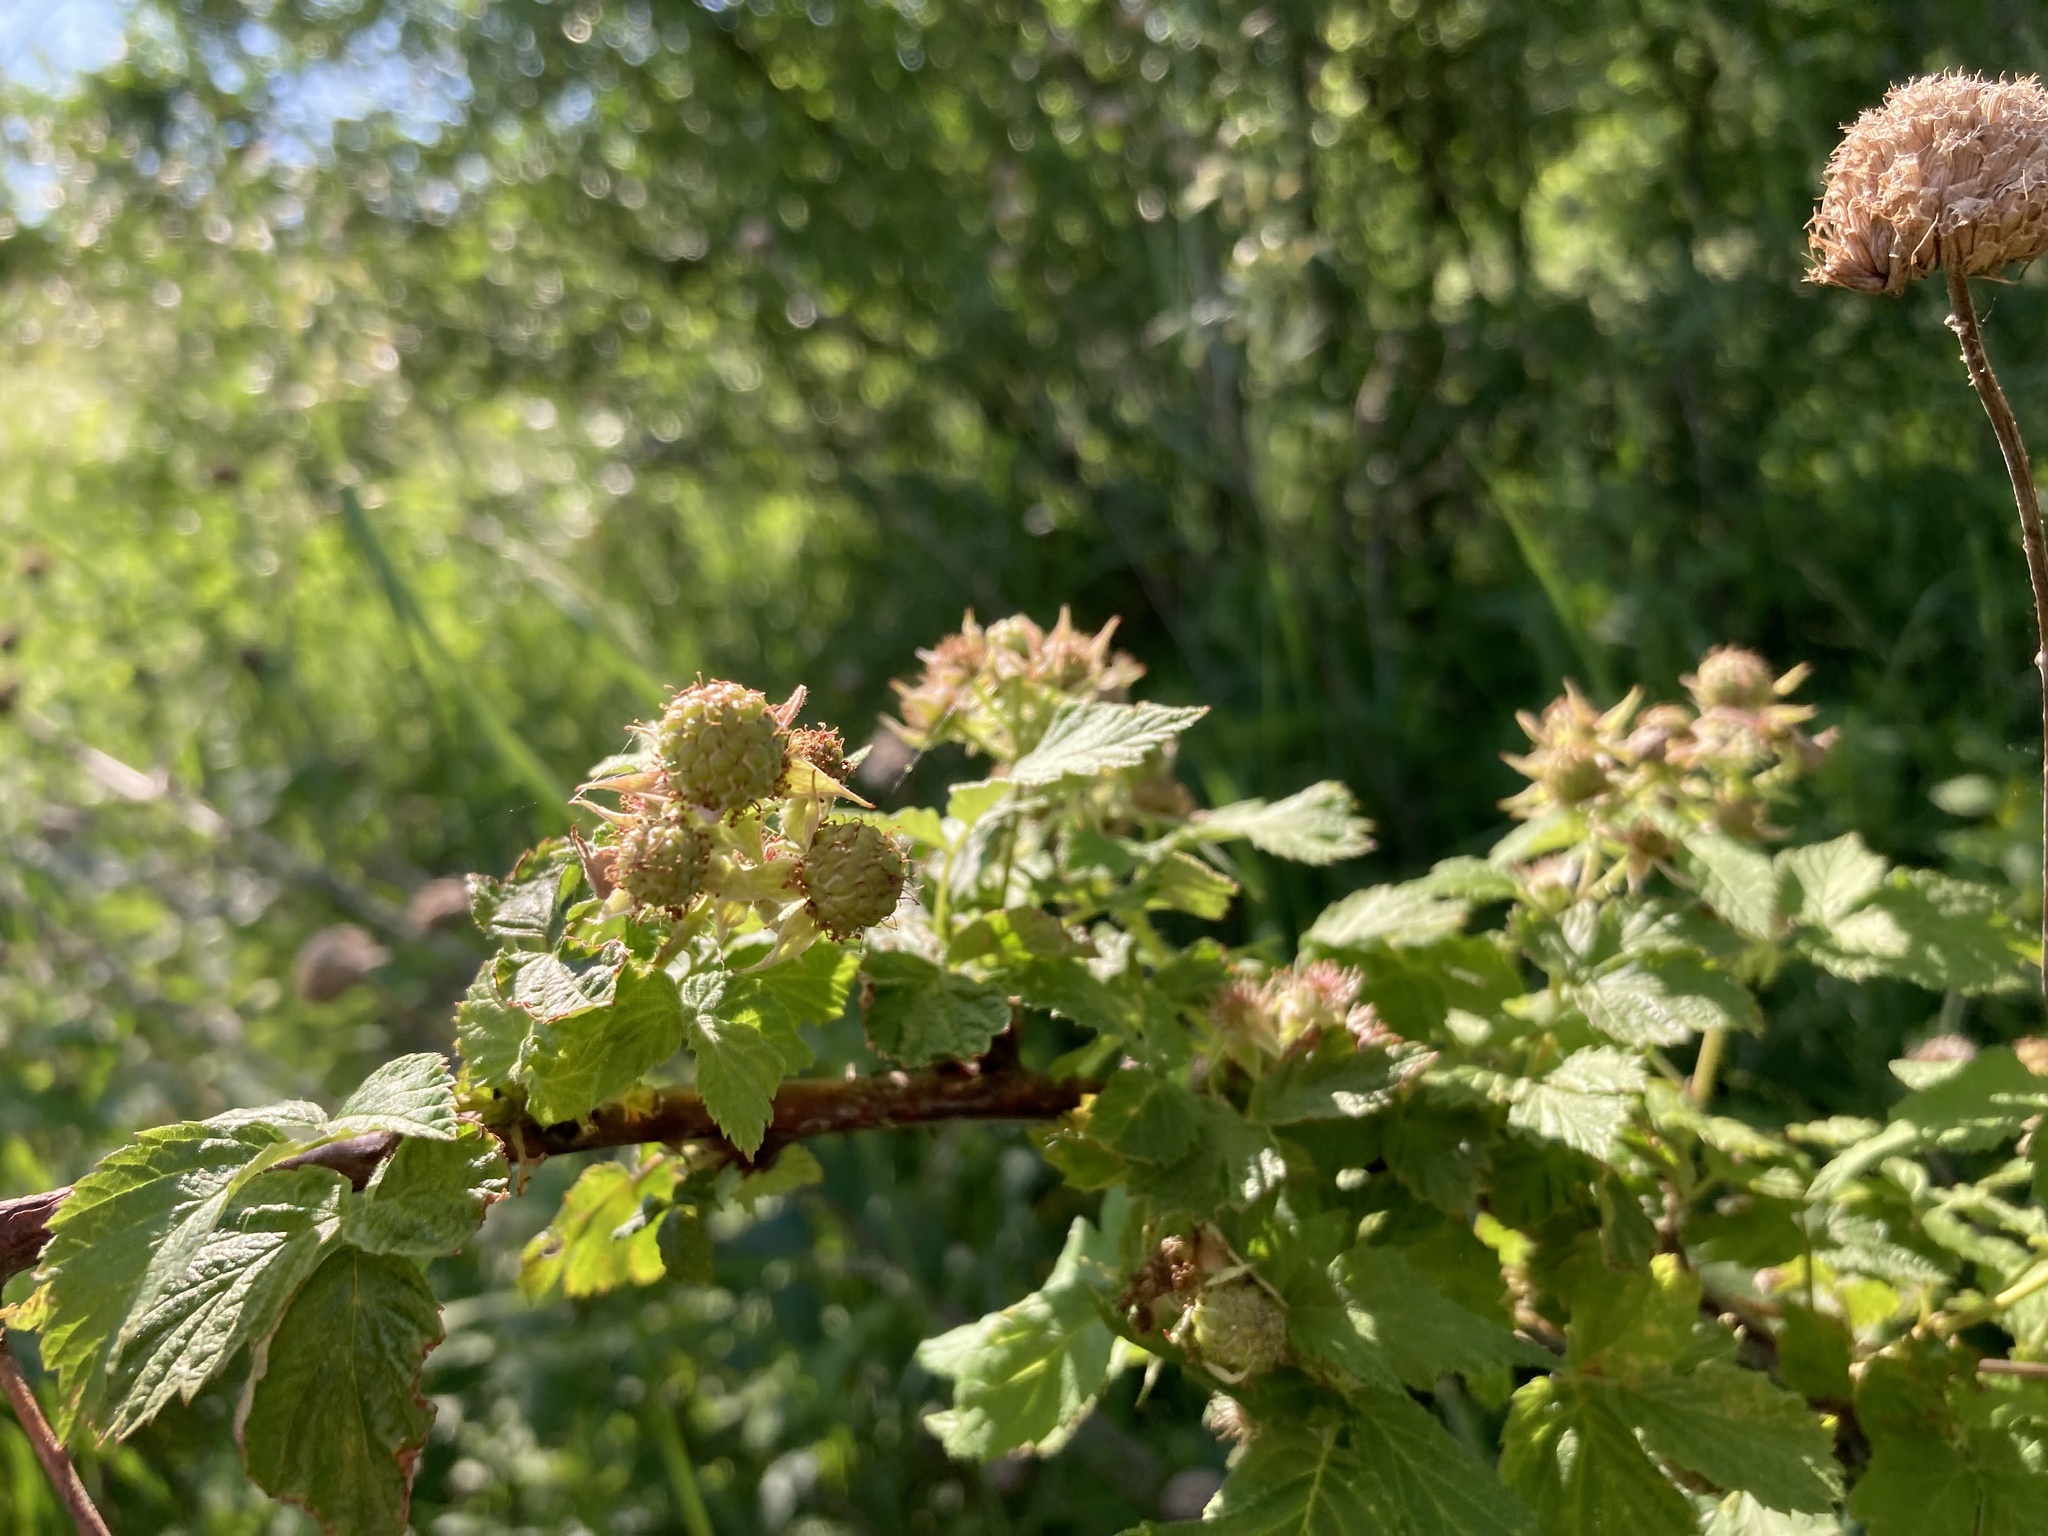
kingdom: Plantae
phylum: Tracheophyta
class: Magnoliopsida
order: Rosales
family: Rosaceae
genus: Rubus
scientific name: Rubus occidentalis
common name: Black raspberry
